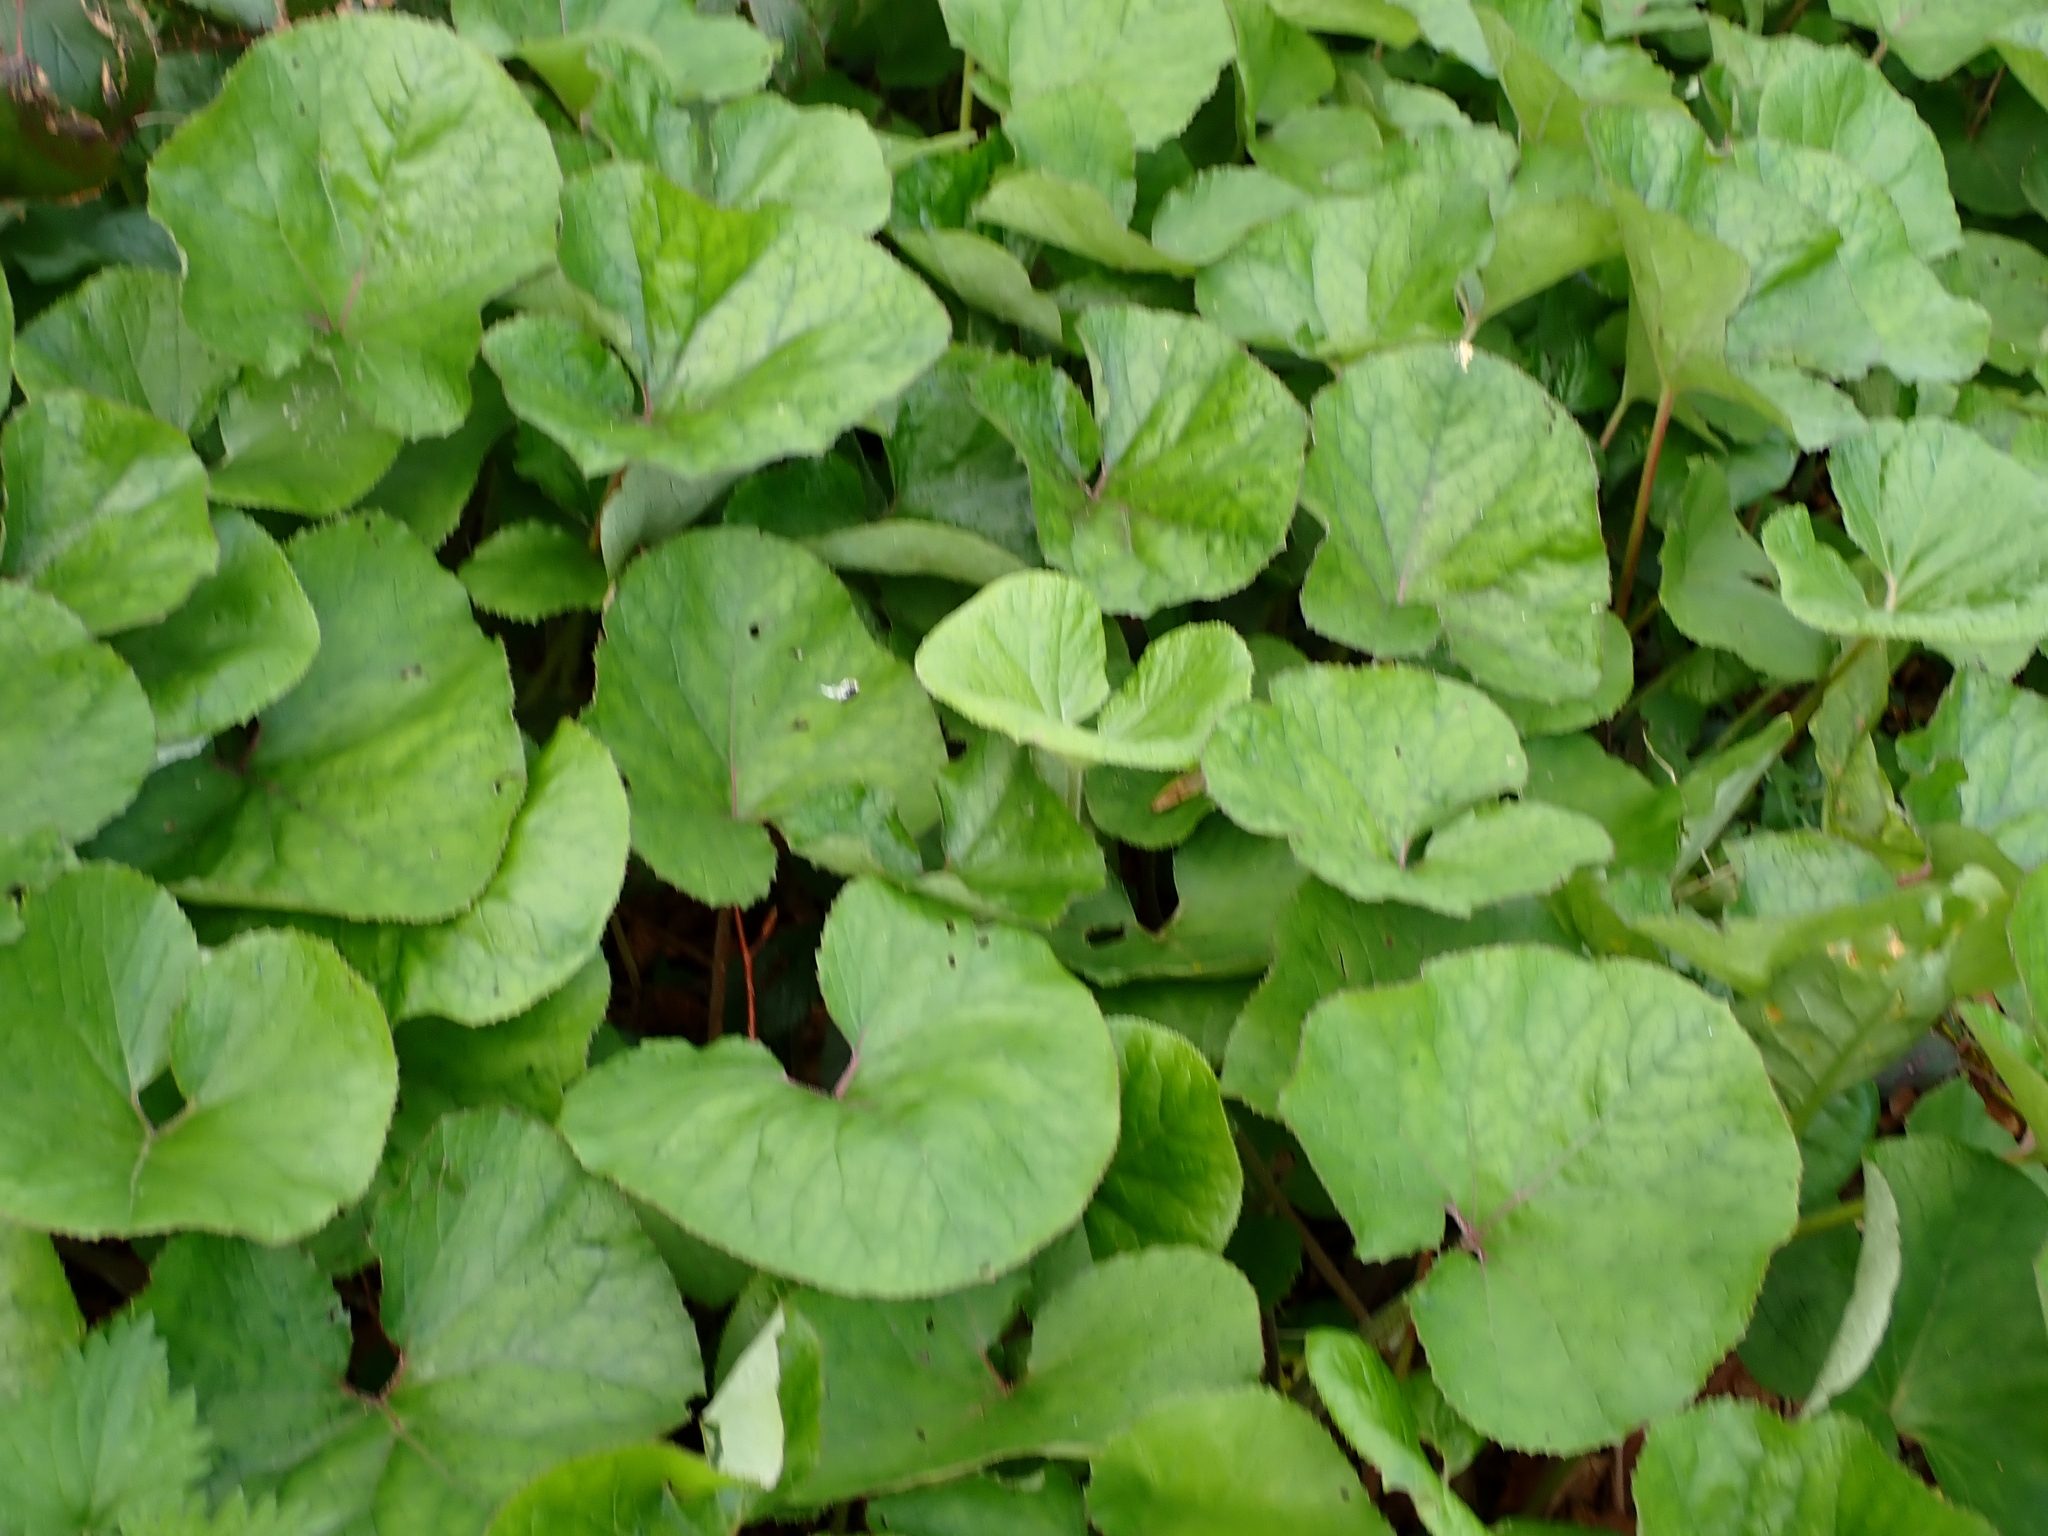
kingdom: Plantae
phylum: Tracheophyta
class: Magnoliopsida
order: Asterales
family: Asteraceae
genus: Petasites
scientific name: Petasites pyrenaicus
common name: Winter heliotrope
